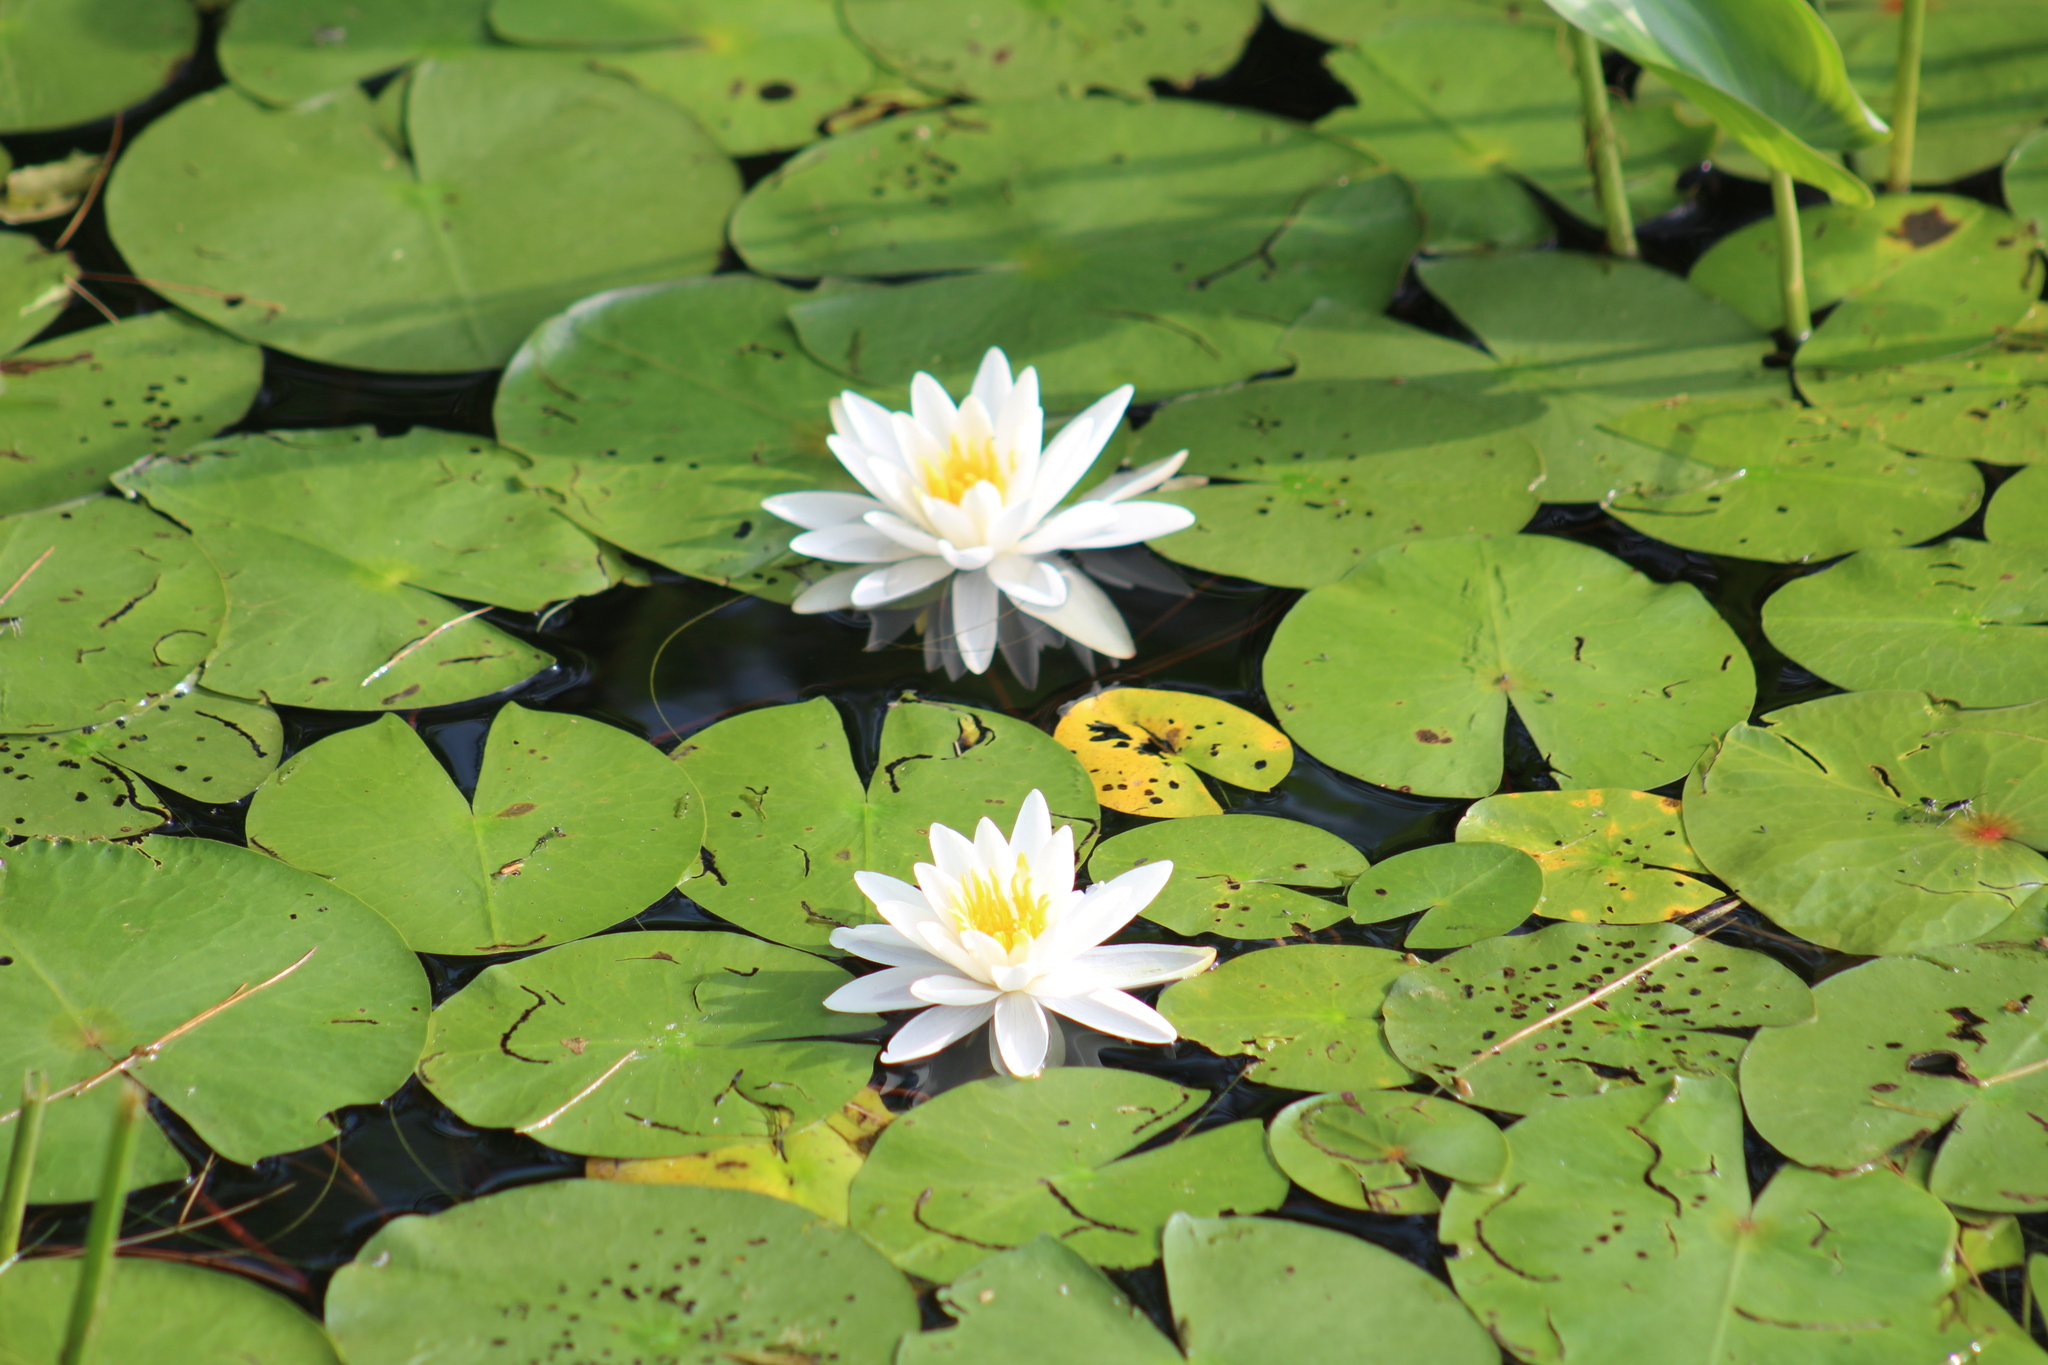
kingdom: Plantae
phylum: Tracheophyta
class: Magnoliopsida
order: Nymphaeales
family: Nymphaeaceae
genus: Nymphaea
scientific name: Nymphaea odorata
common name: Fragrant water-lily
